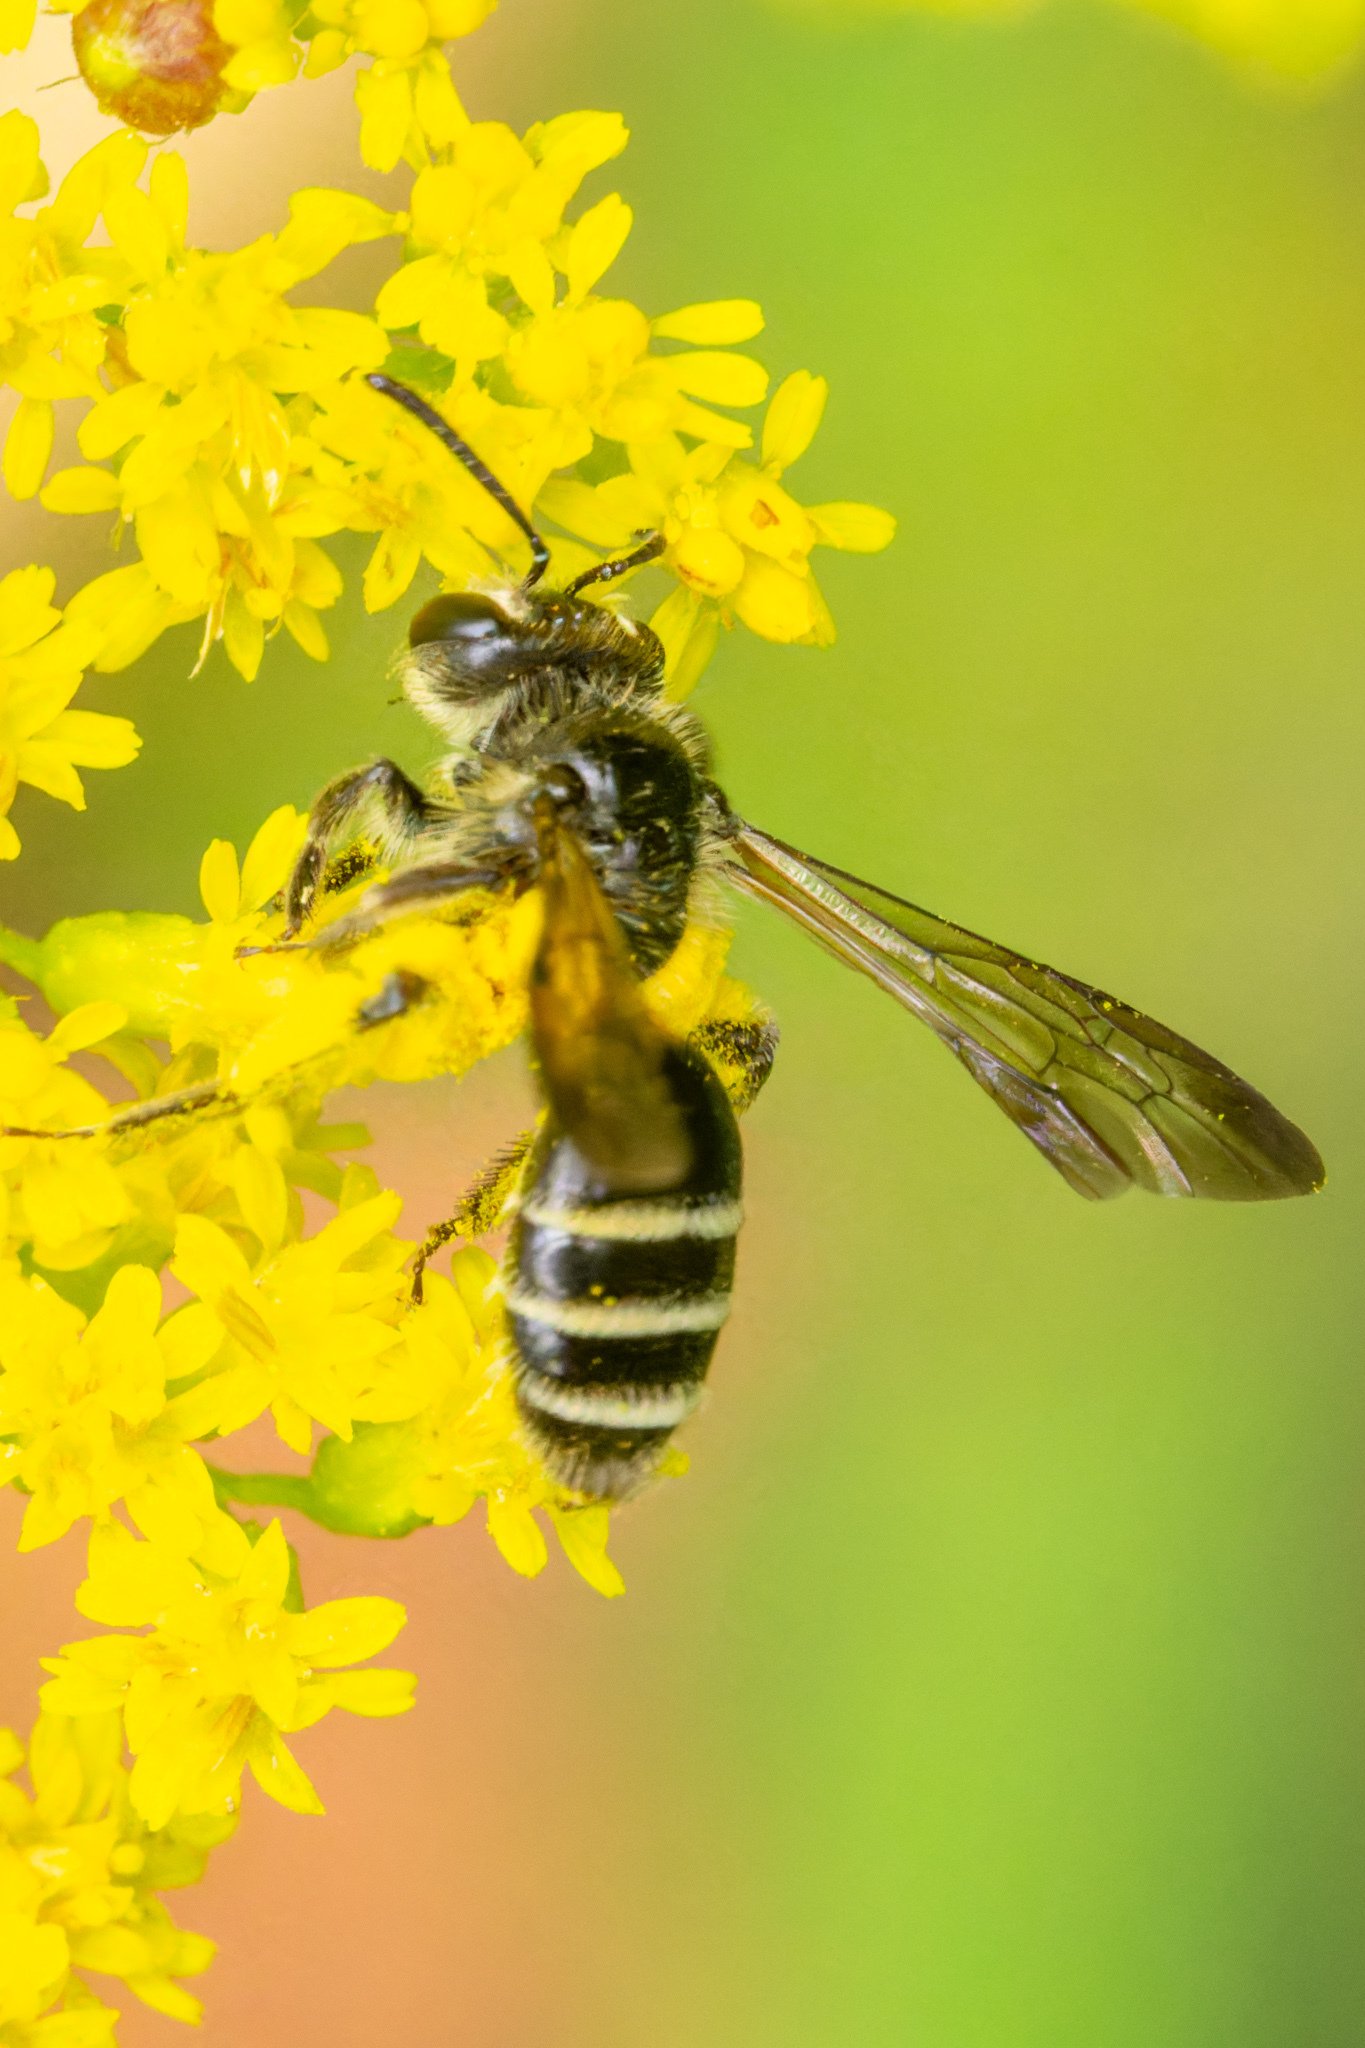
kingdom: Animalia
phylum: Arthropoda
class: Insecta
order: Hymenoptera
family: Andrenidae
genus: Andrena
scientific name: Andrena nubecula
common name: Cloudy-winged mining bee
